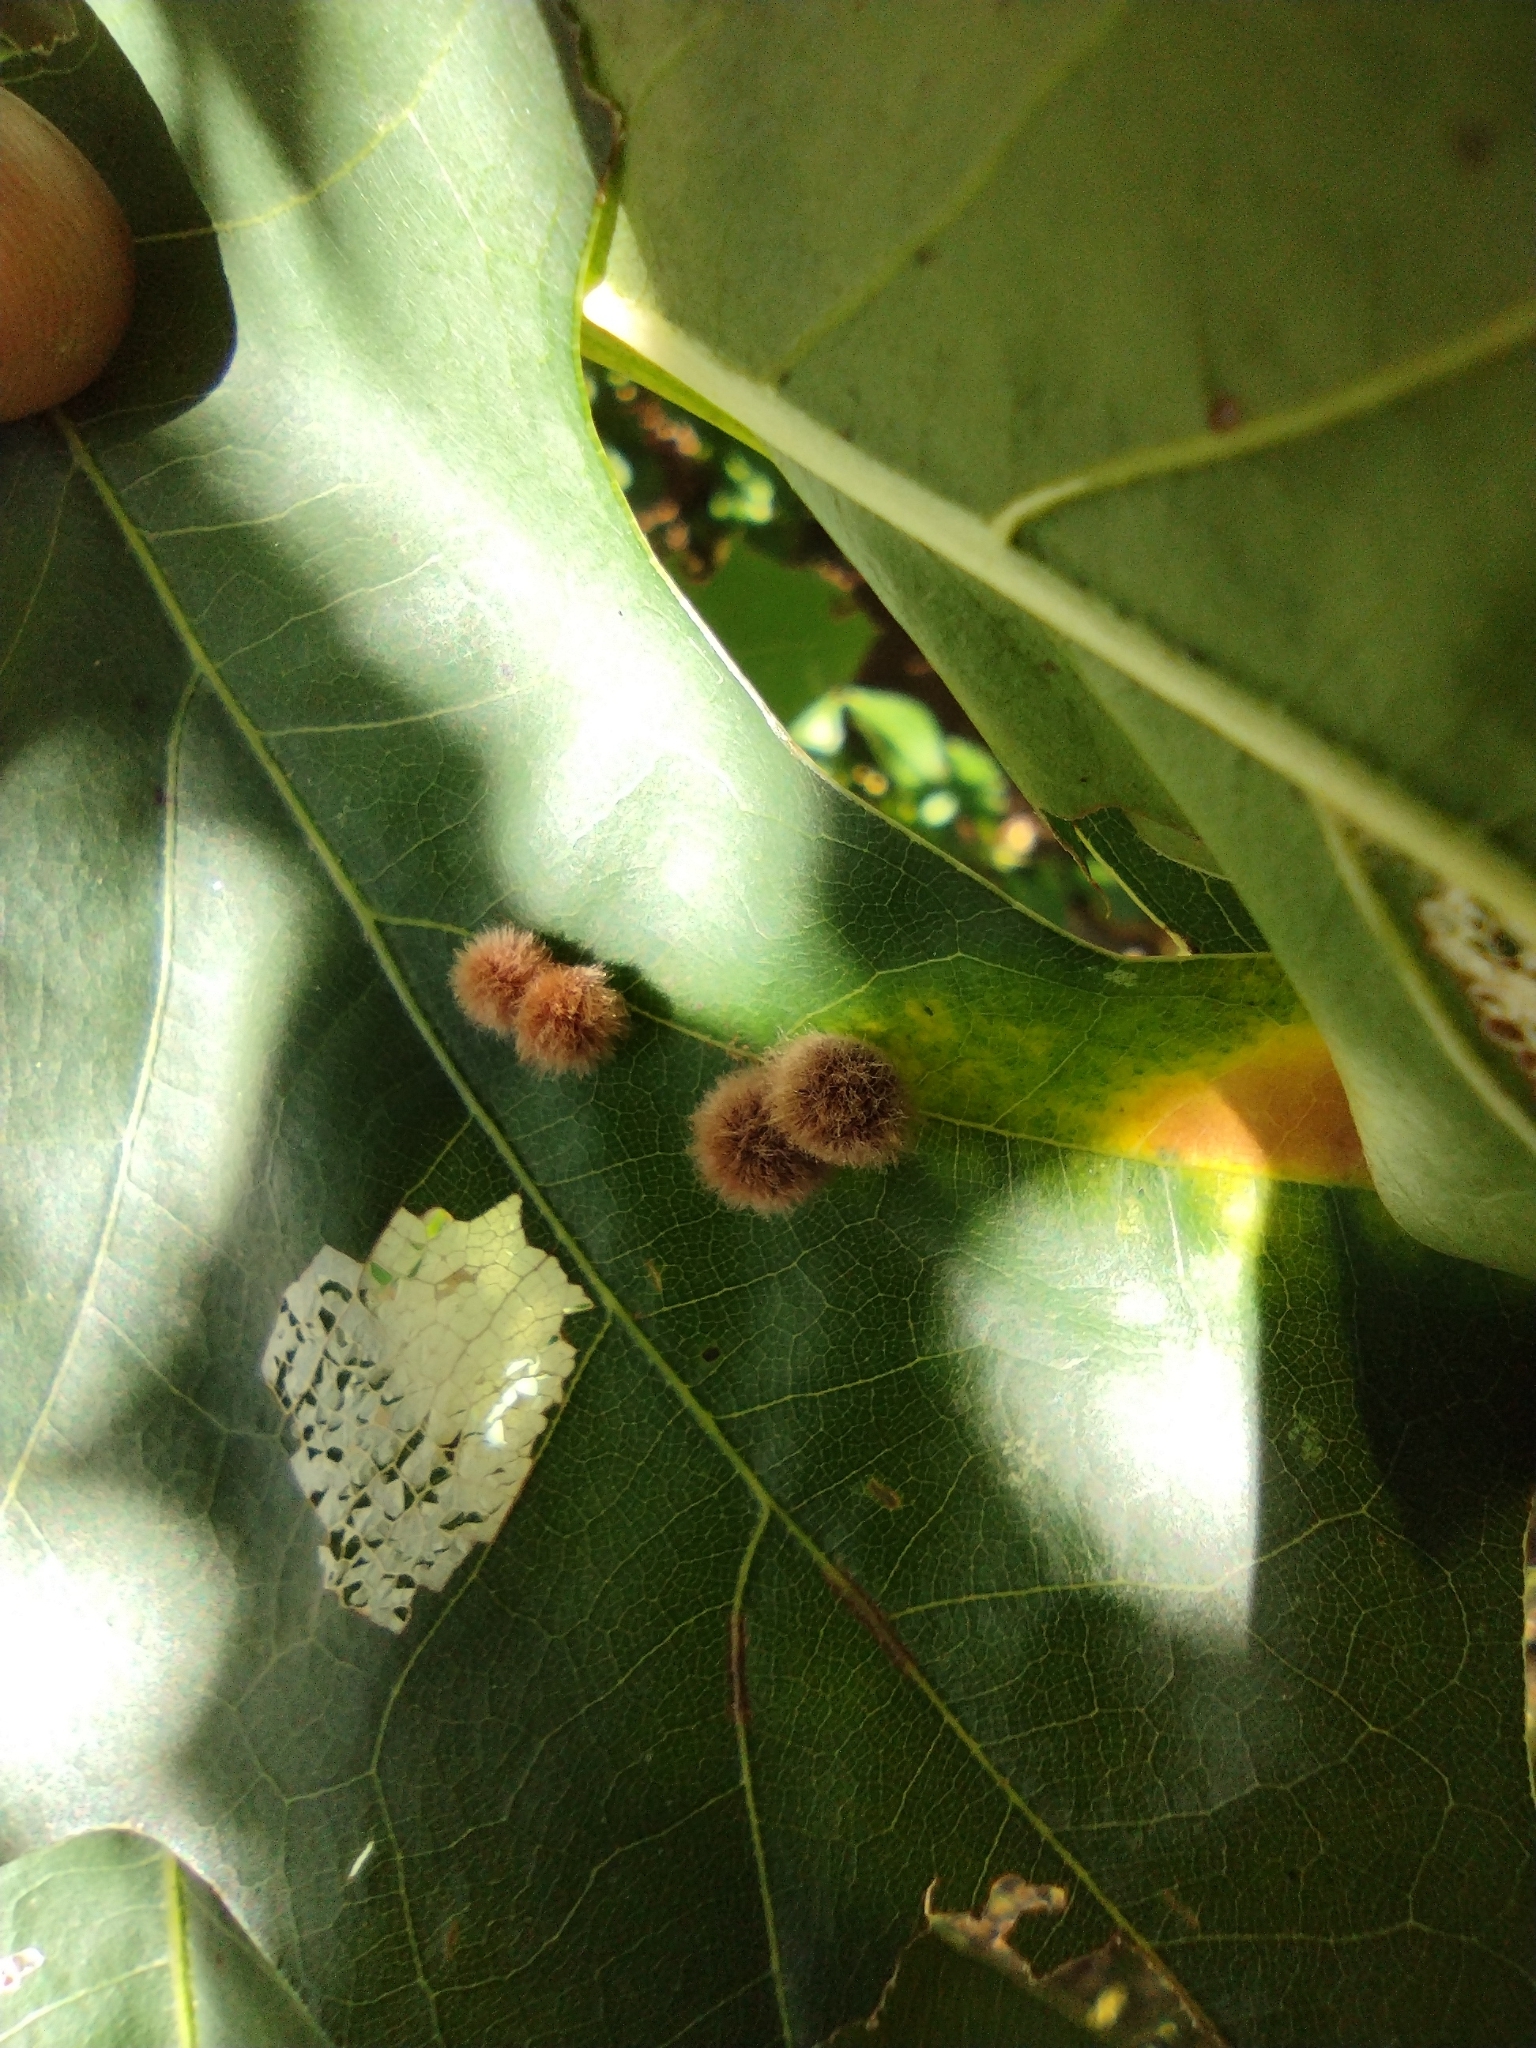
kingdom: Animalia
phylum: Arthropoda
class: Insecta
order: Hymenoptera
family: Cynipidae
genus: Callirhytis
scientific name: Callirhytis
